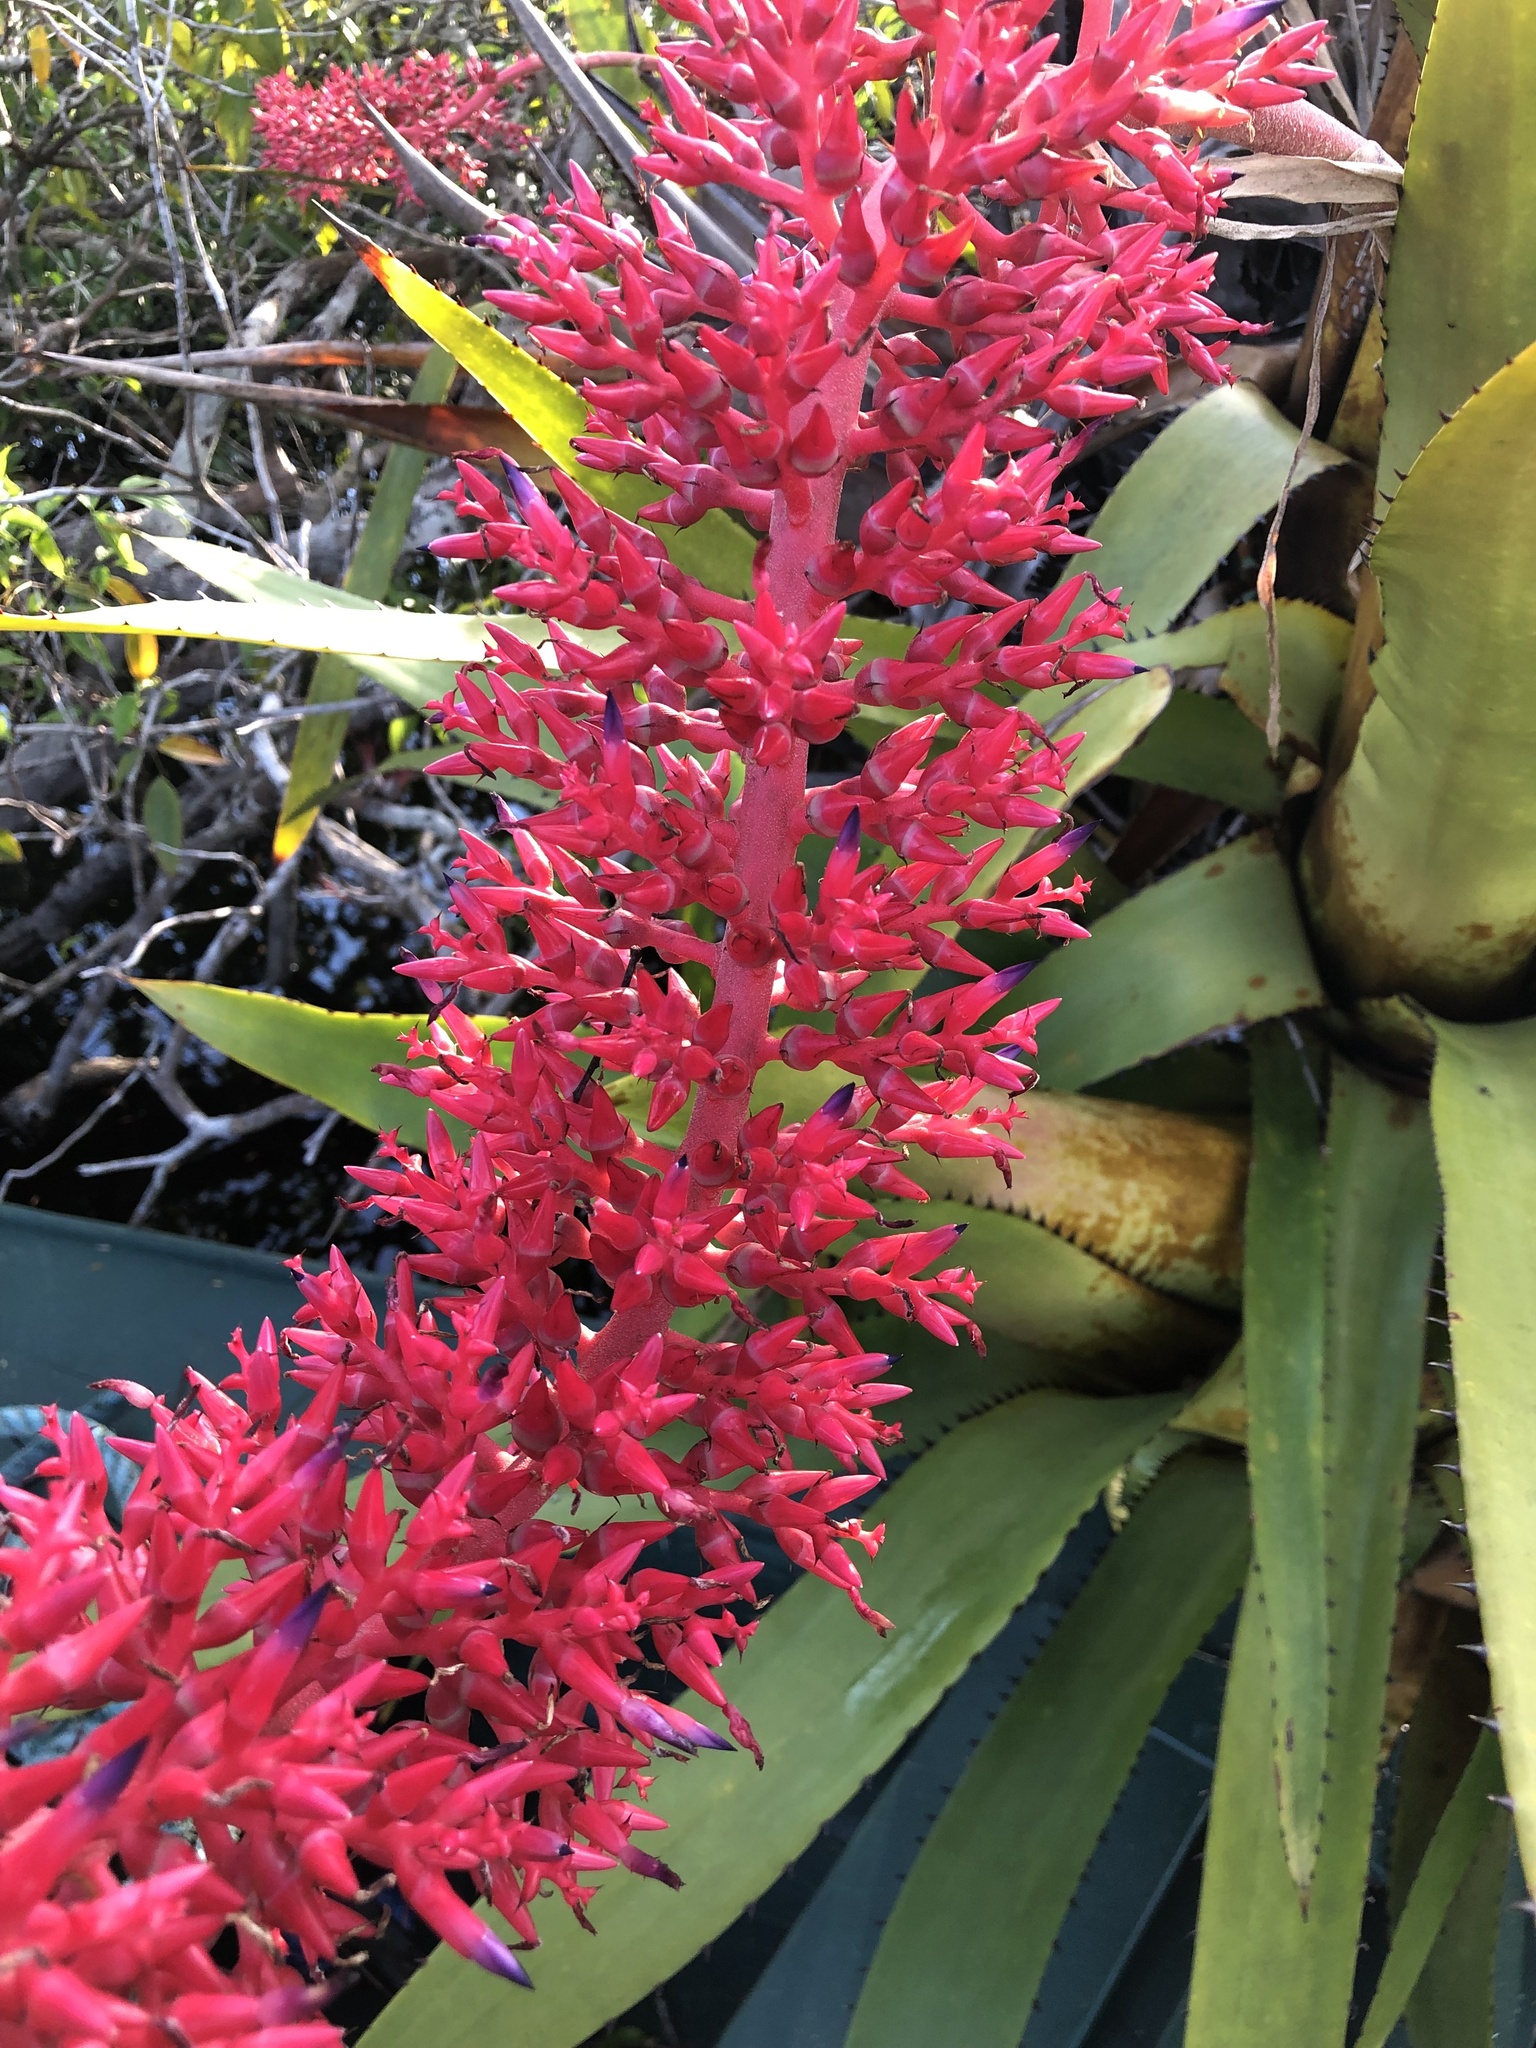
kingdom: Plantae
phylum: Tracheophyta
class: Liliopsida
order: Poales
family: Bromeliaceae
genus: Aechmea
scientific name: Aechmea huebneri
